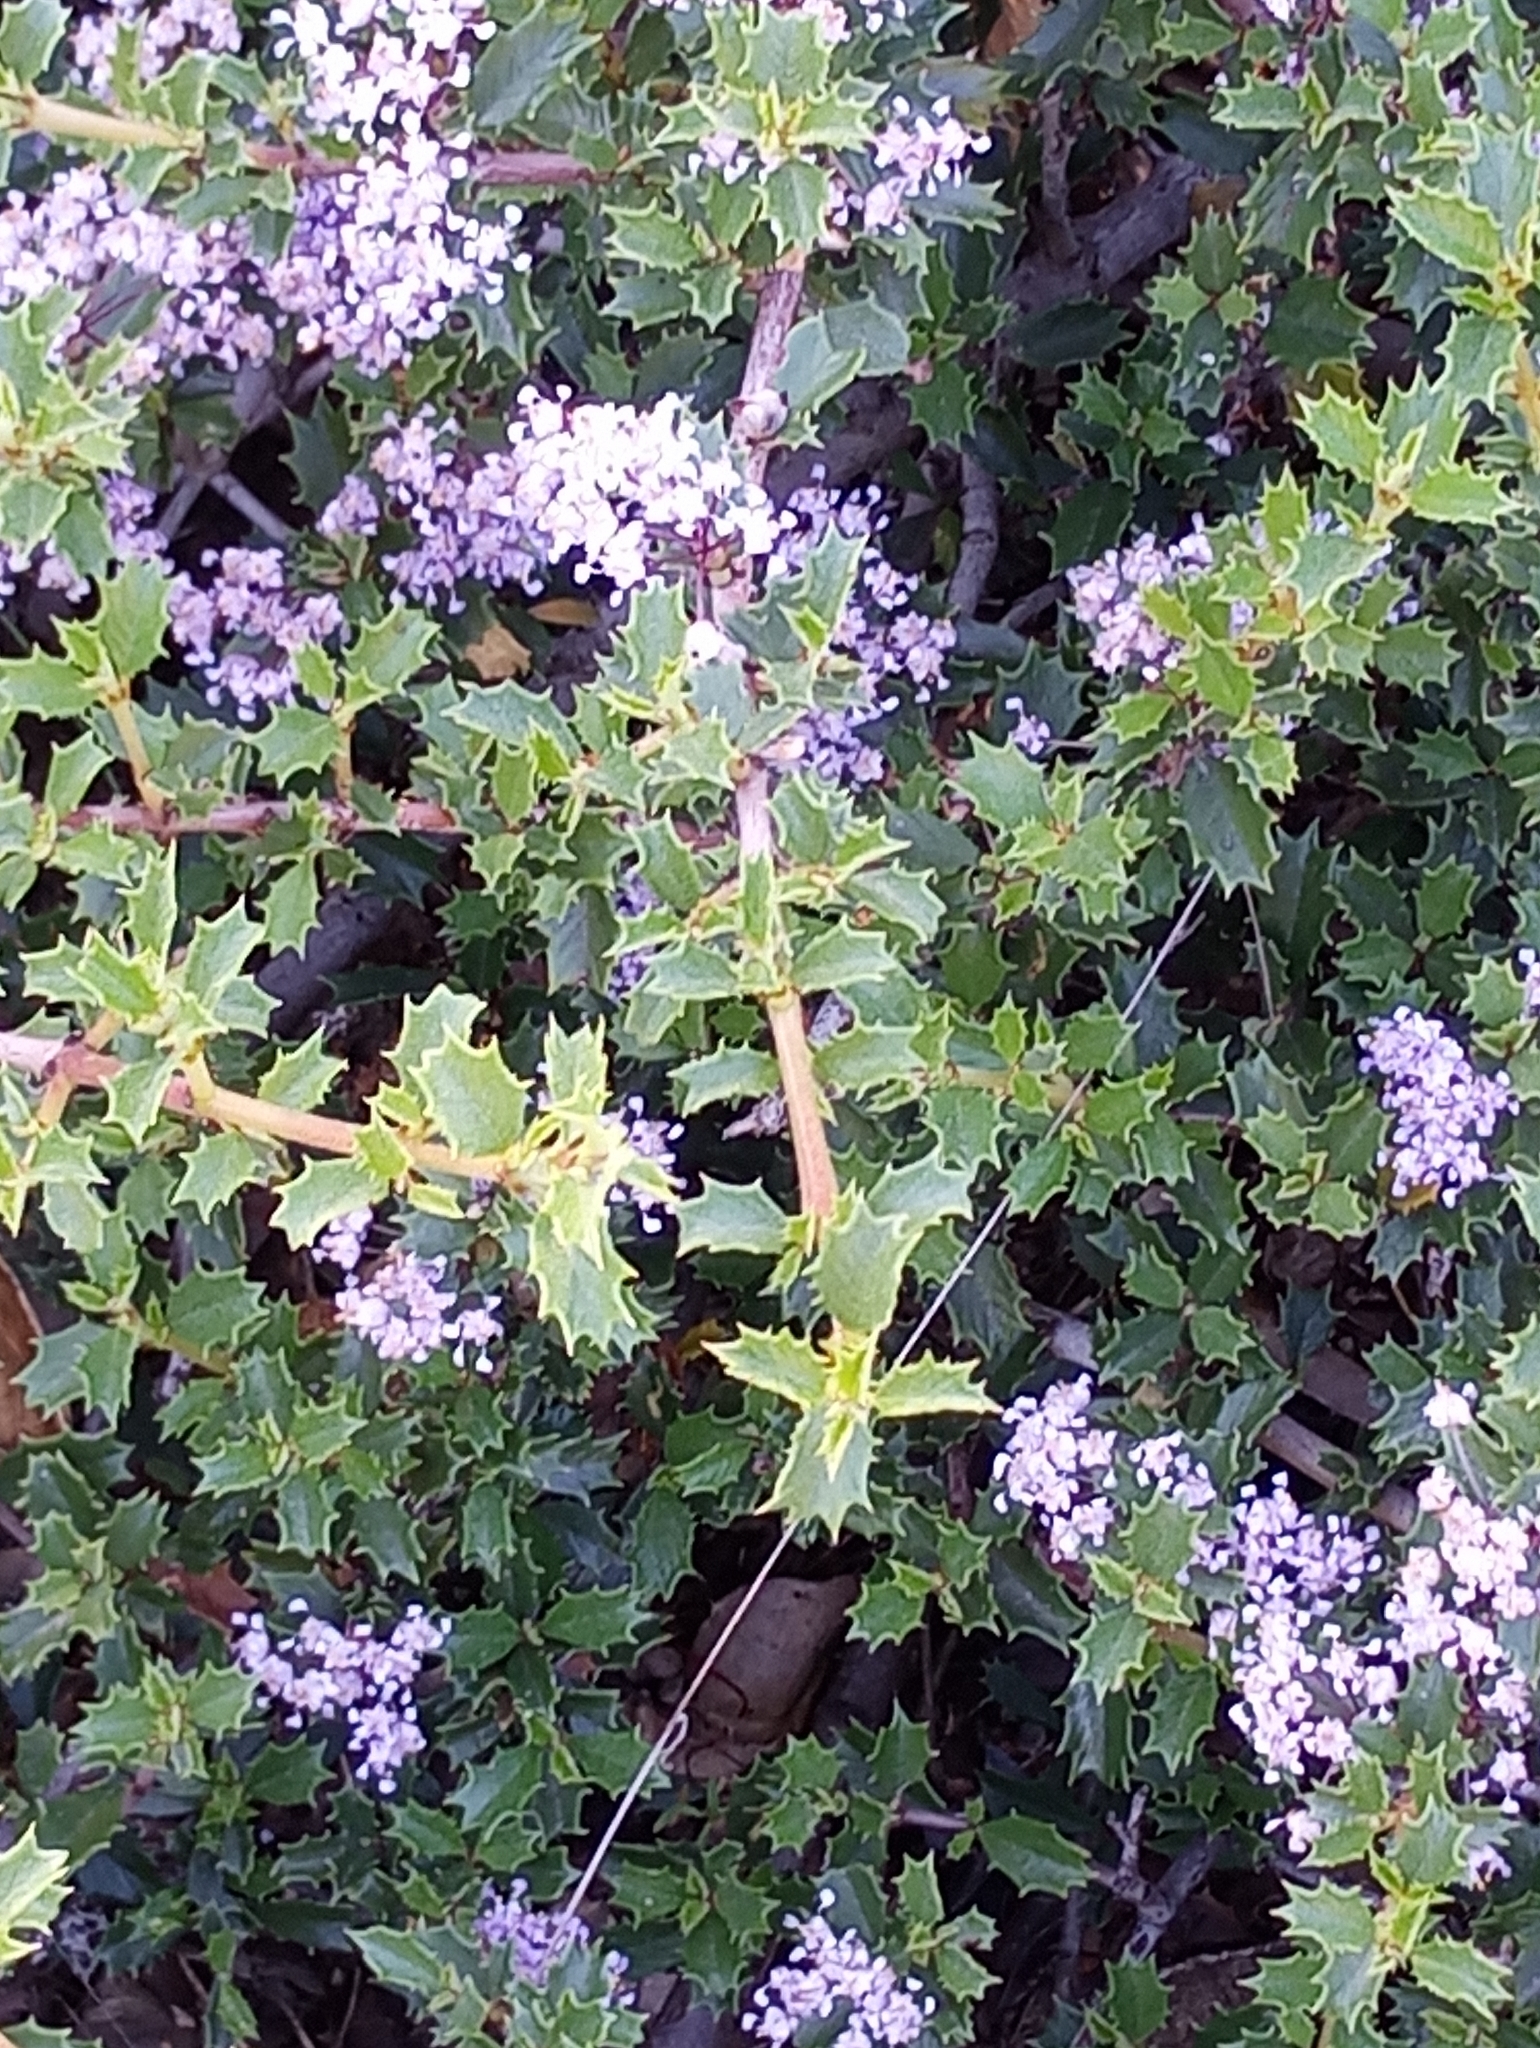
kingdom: Plantae
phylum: Tracheophyta
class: Magnoliopsida
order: Rosales
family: Rhamnaceae
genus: Ceanothus
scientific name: Ceanothus jepsonii
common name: Muskbrush
